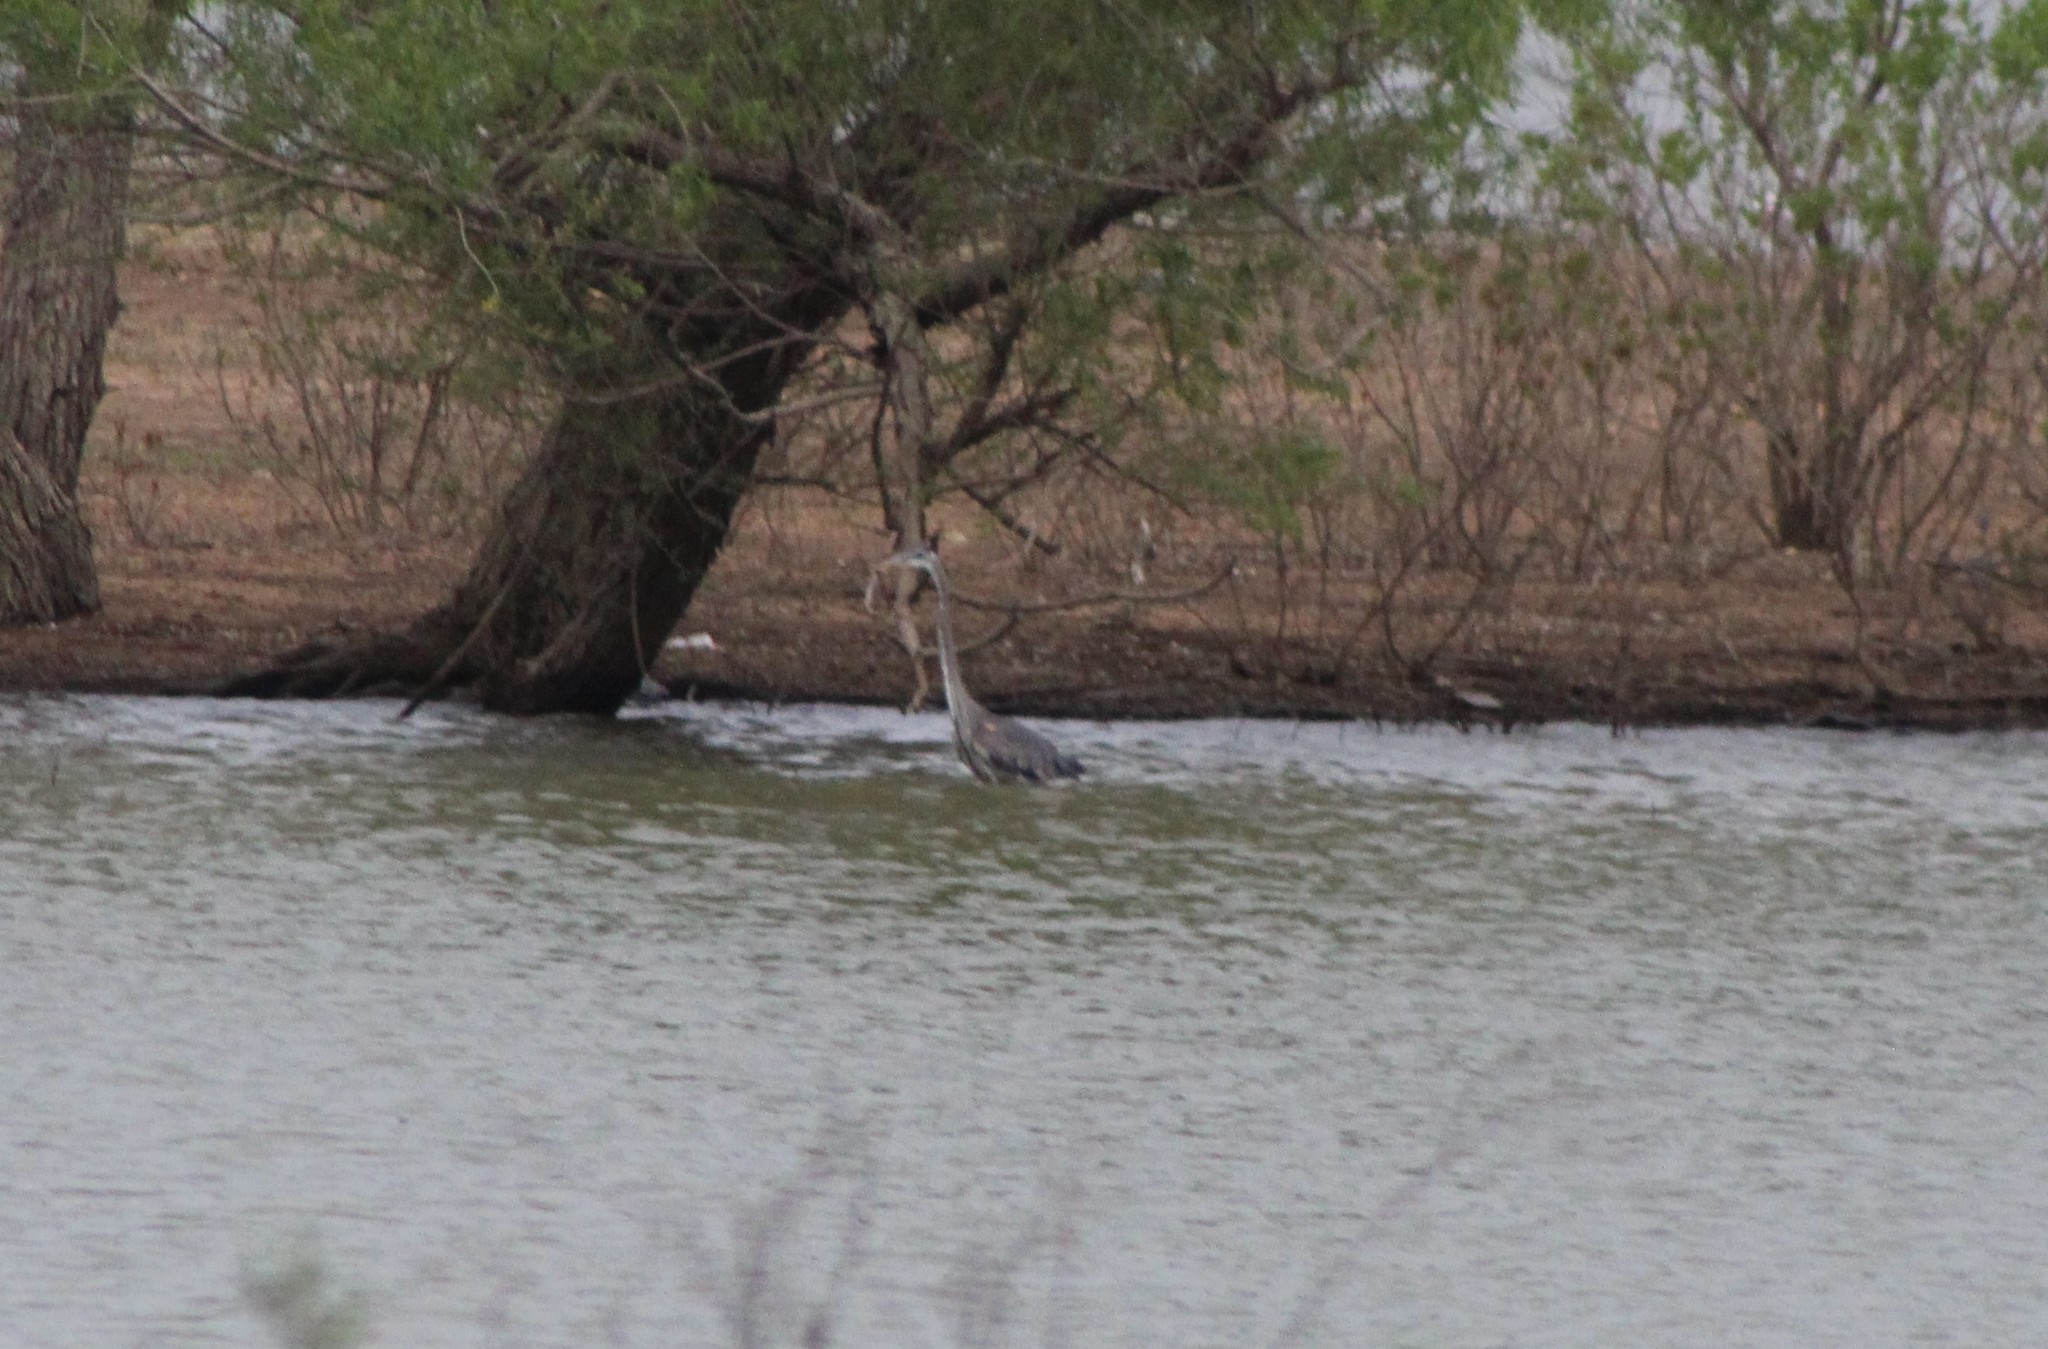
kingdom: Animalia
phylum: Chordata
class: Aves
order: Pelecaniformes
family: Ardeidae
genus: Ardea
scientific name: Ardea herodias
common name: Great blue heron
